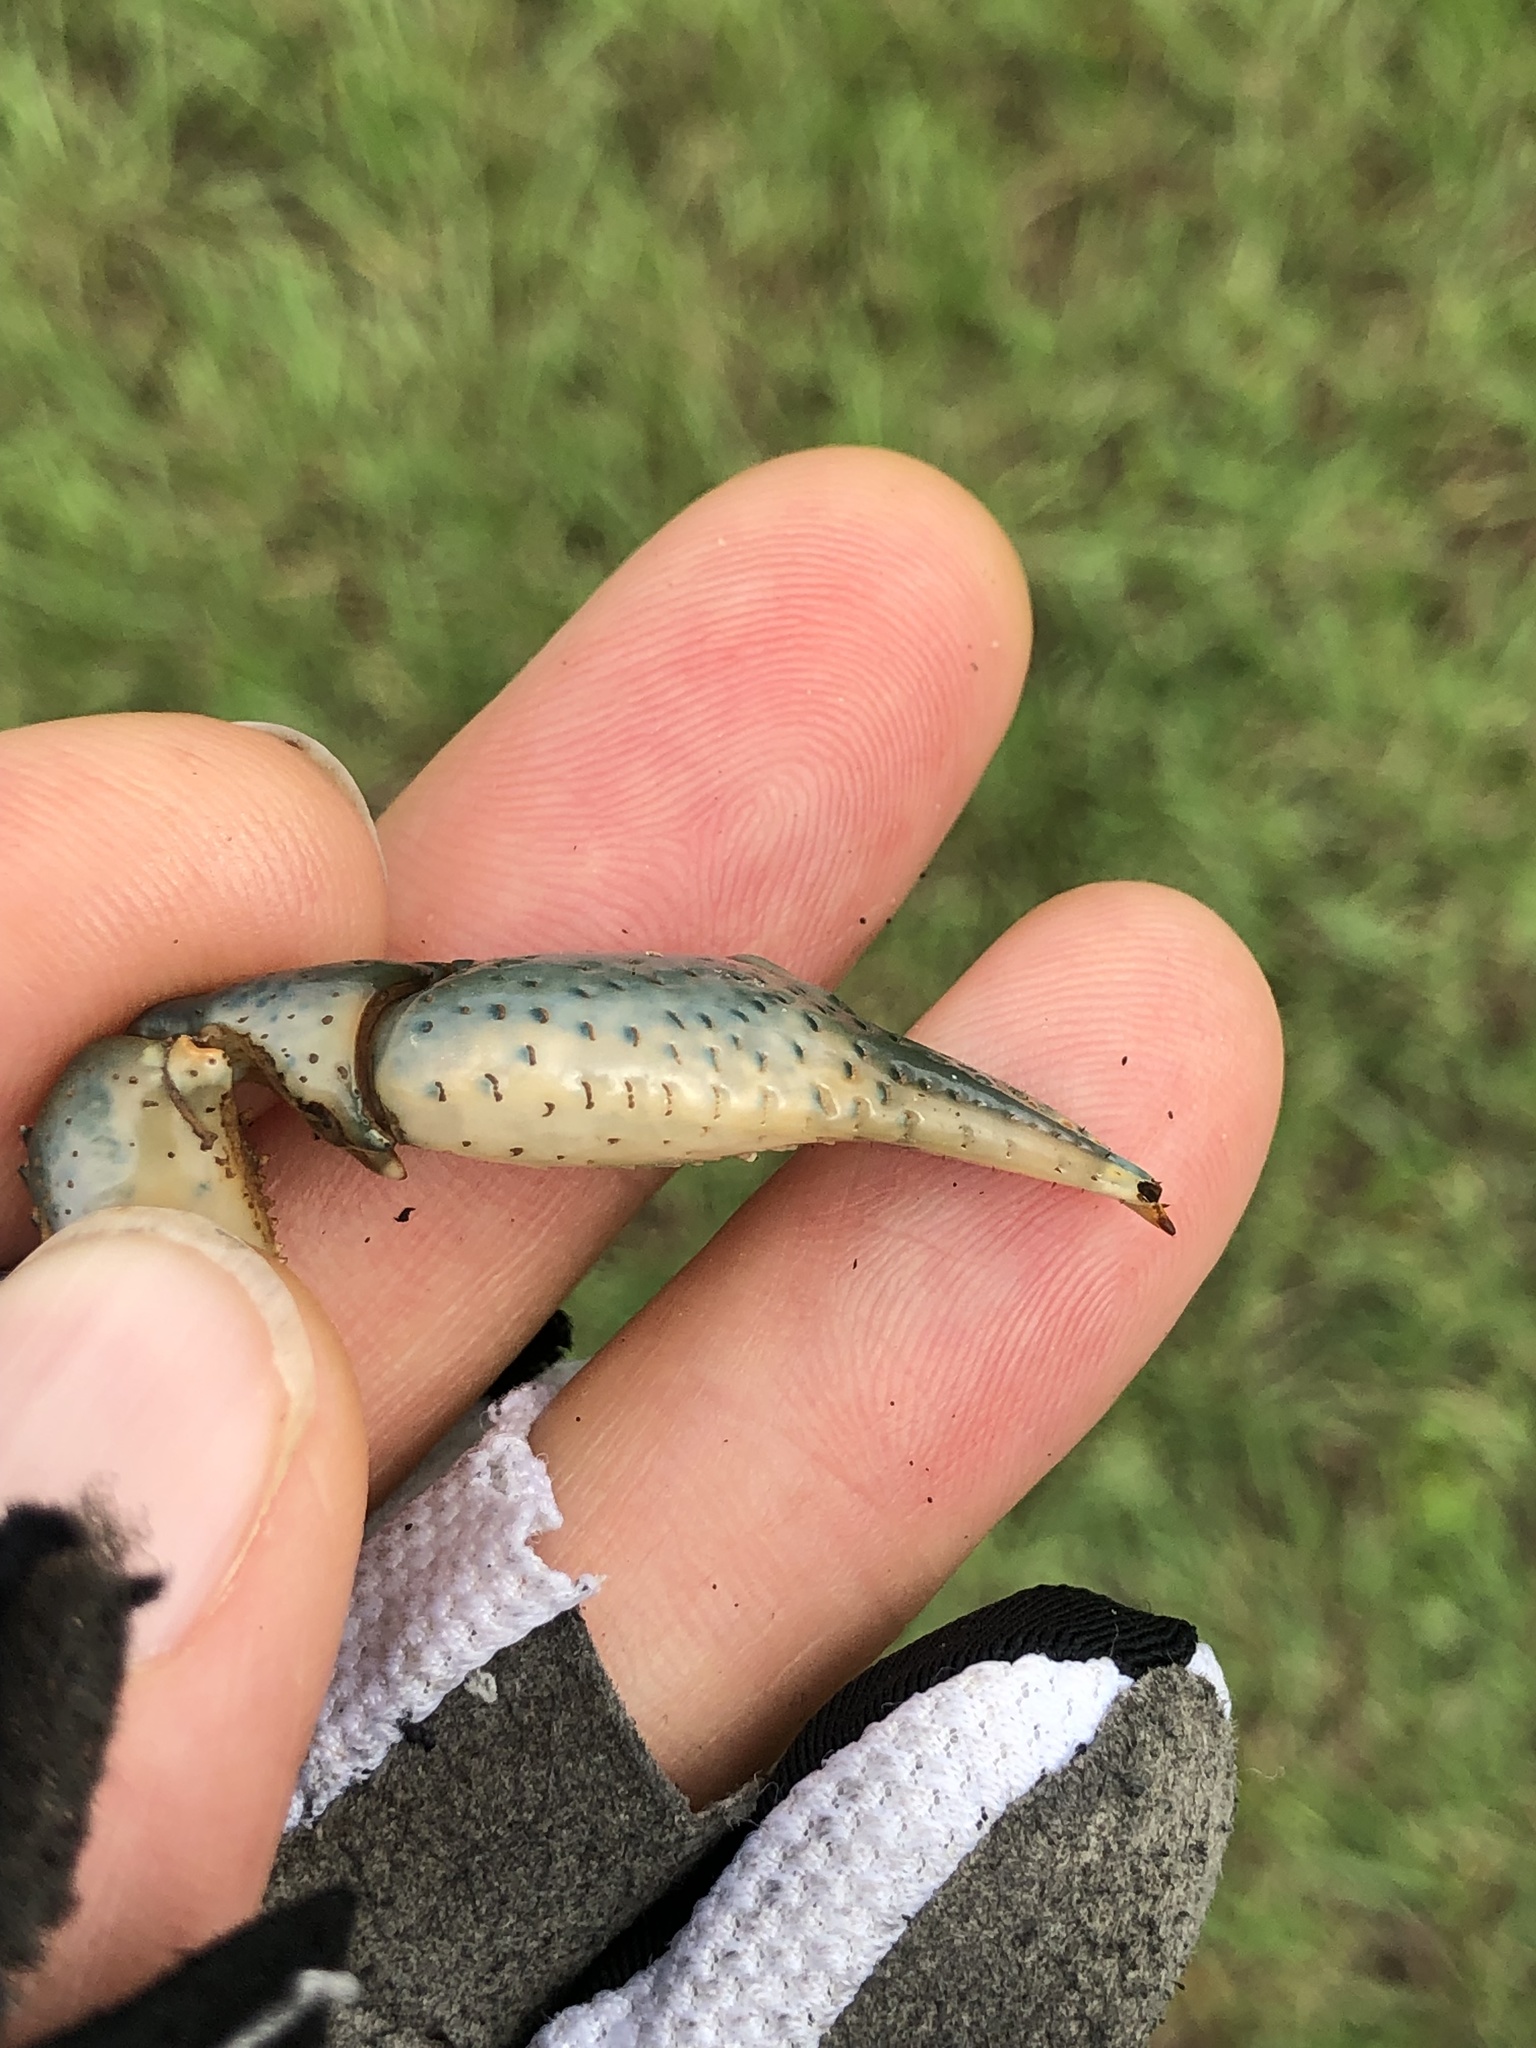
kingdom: Animalia
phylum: Arthropoda
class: Malacostraca
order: Decapoda
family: Cambaridae
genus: Fallicambarus
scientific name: Fallicambarus houstonensis
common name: Houston burrowing crayfish
